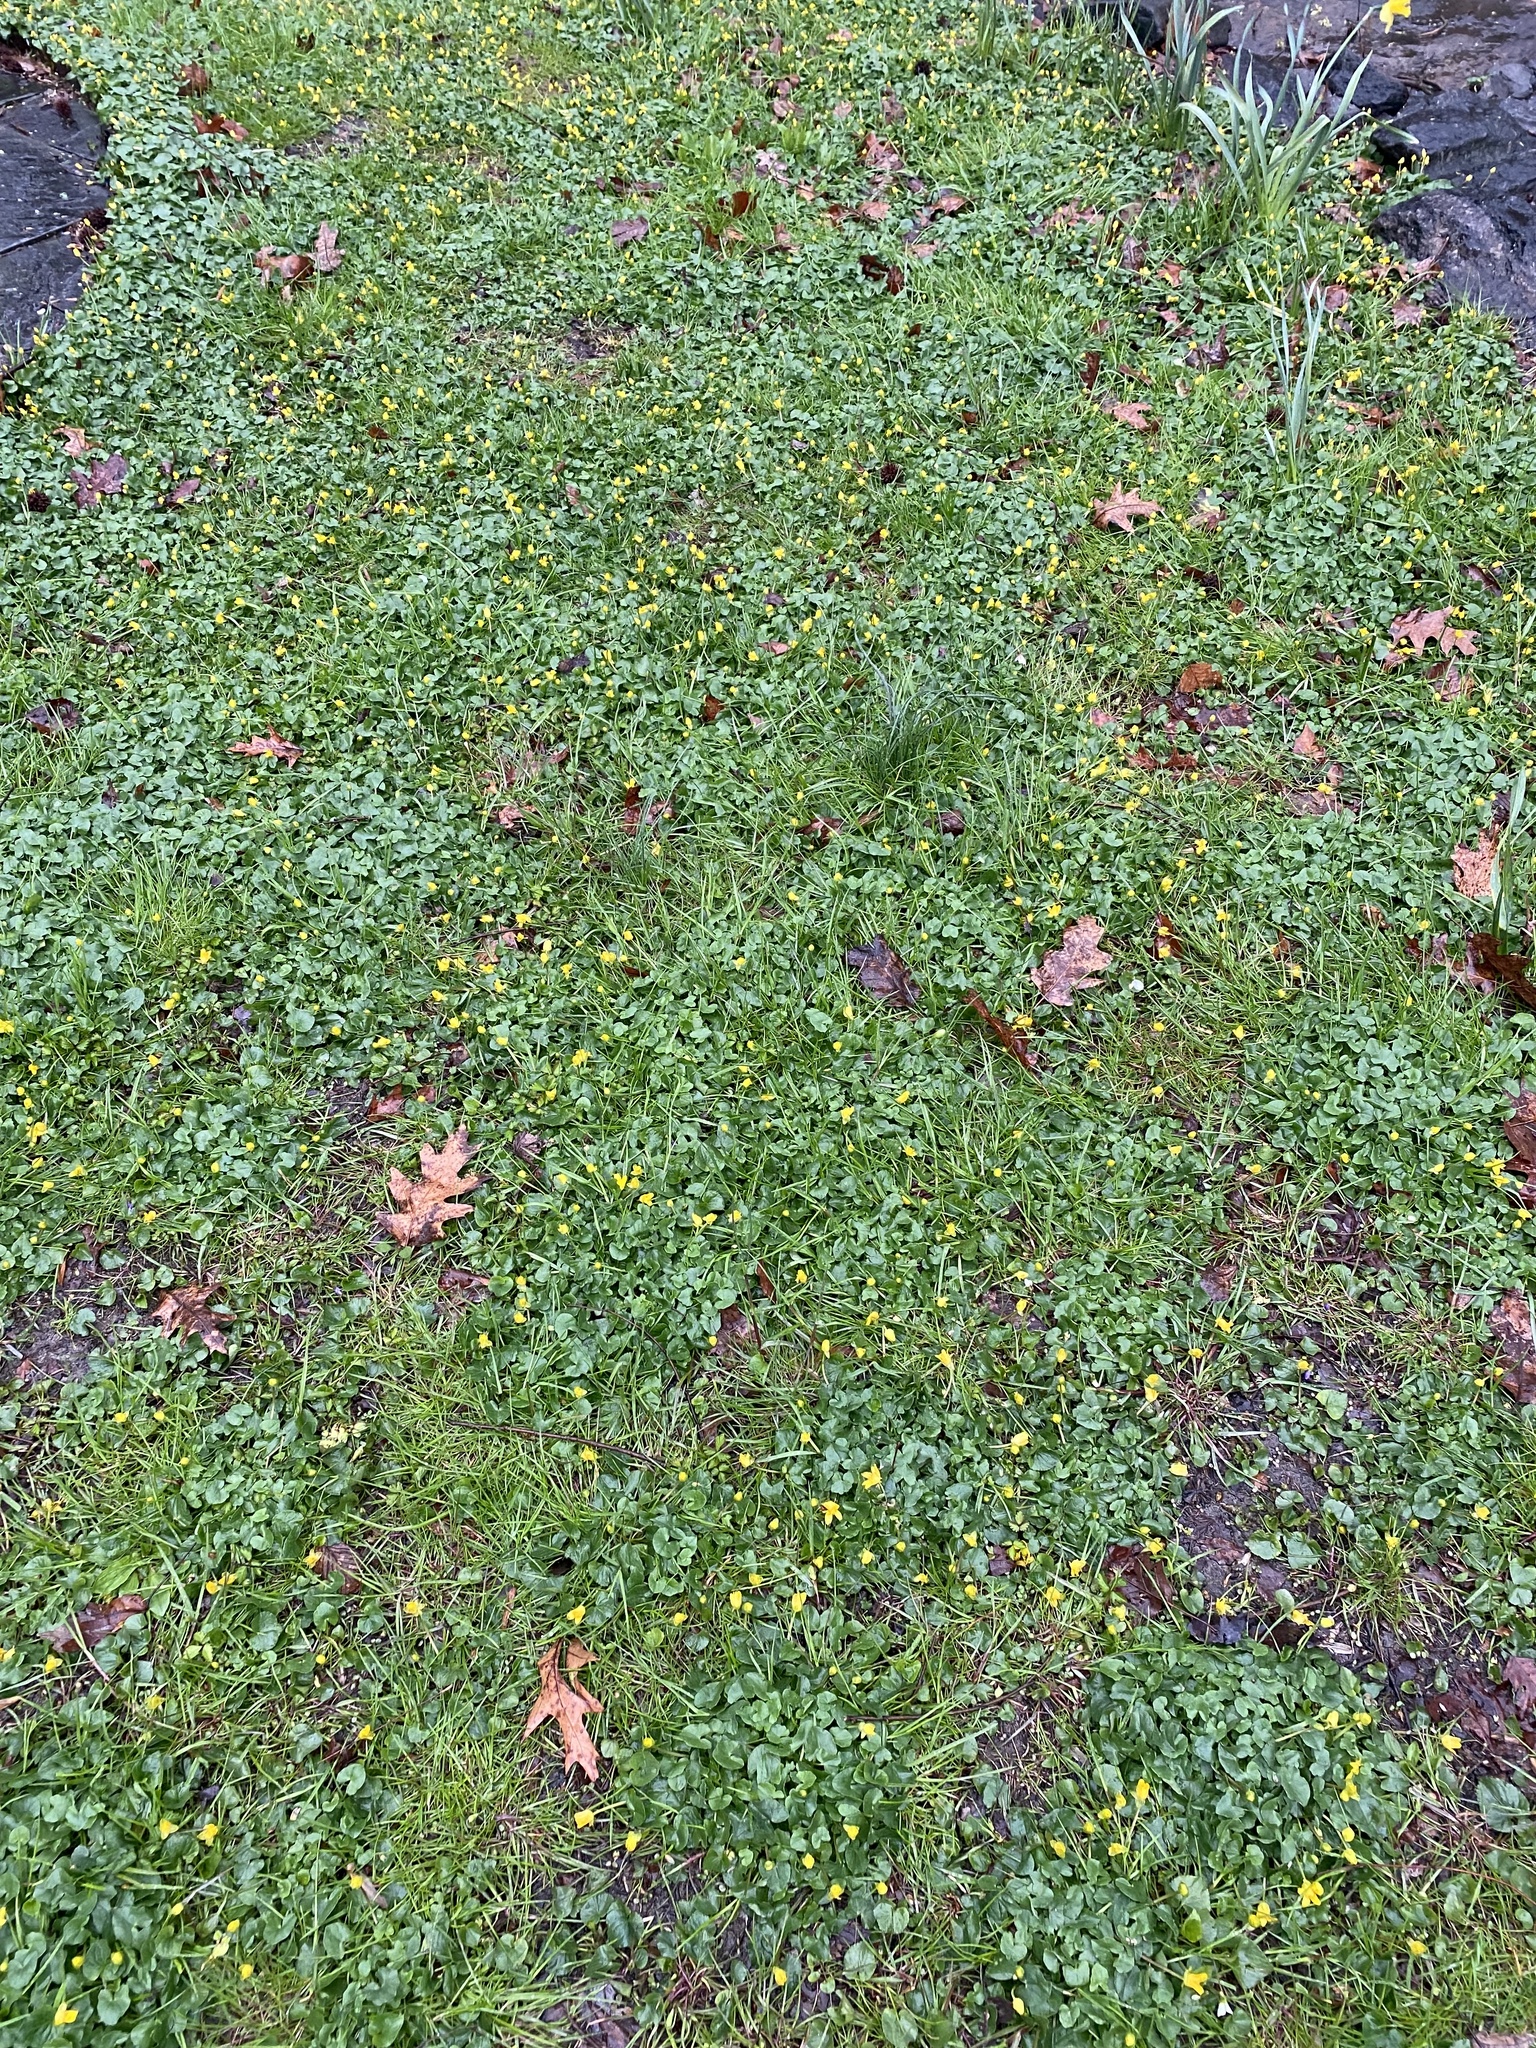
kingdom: Plantae
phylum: Tracheophyta
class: Magnoliopsida
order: Ranunculales
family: Ranunculaceae
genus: Ficaria
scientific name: Ficaria verna
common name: Lesser celandine
